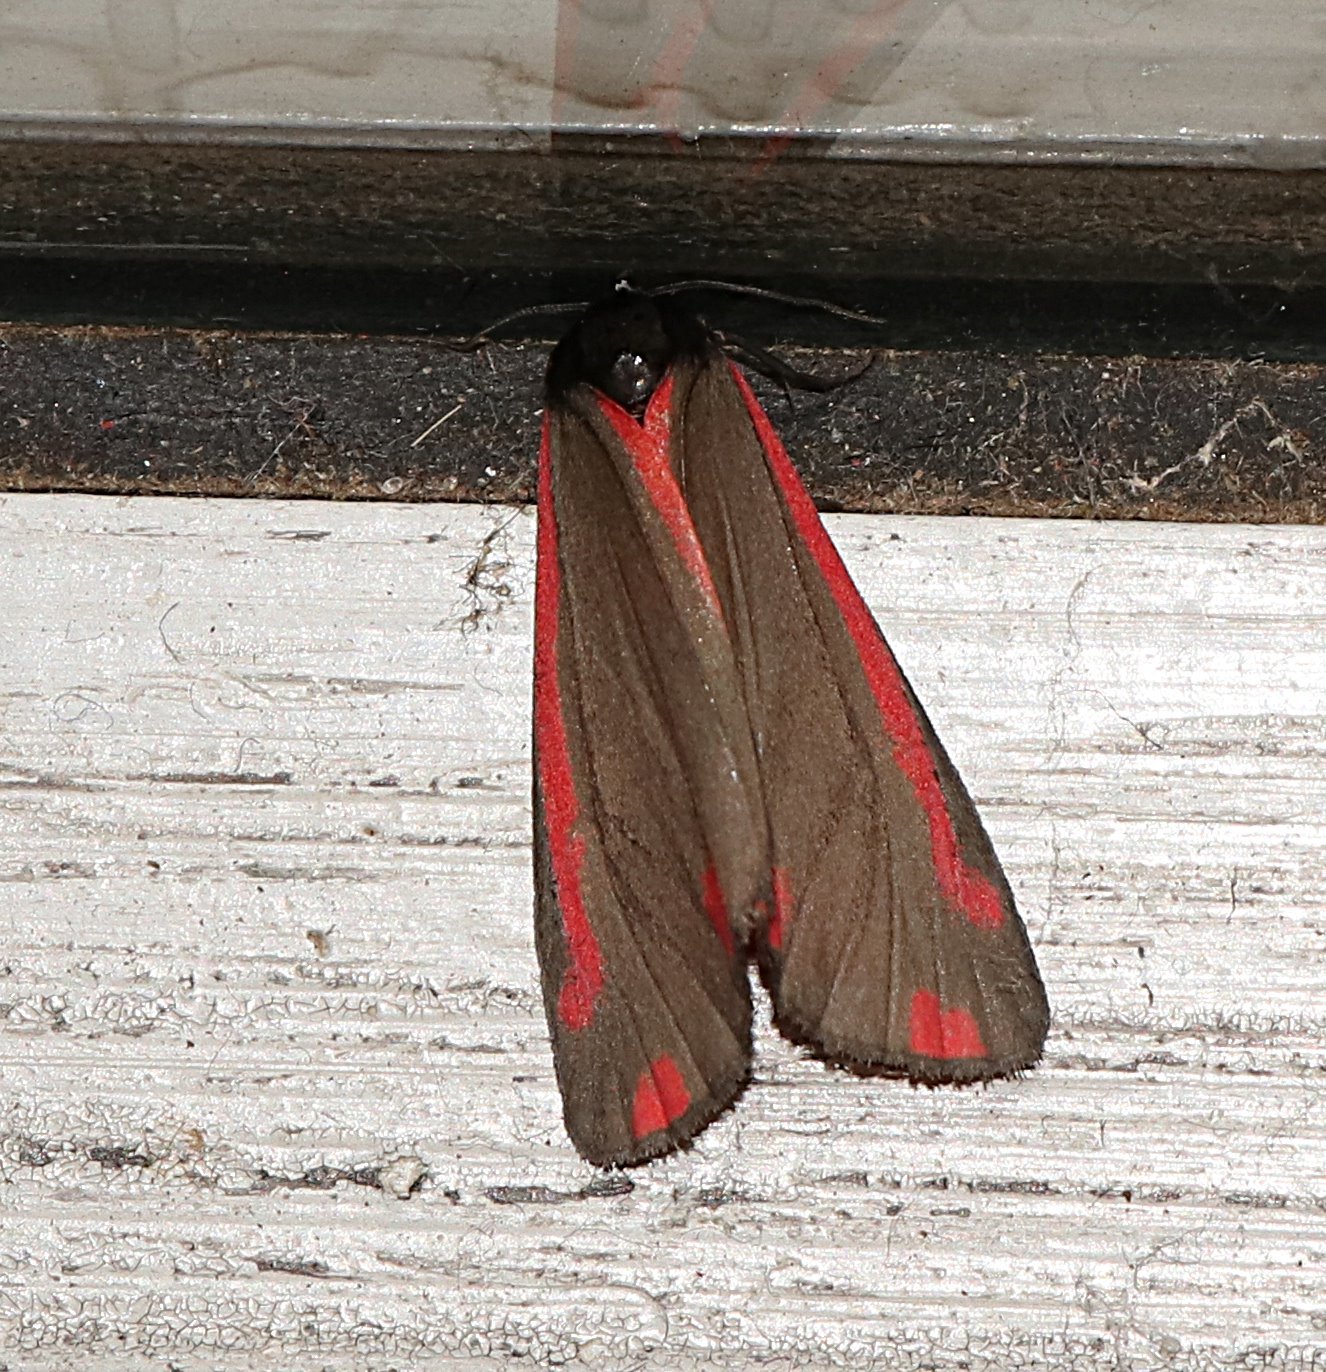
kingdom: Animalia
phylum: Arthropoda
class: Insecta
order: Lepidoptera
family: Erebidae
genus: Tyria
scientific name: Tyria jacobaeae
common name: Cinnabar
